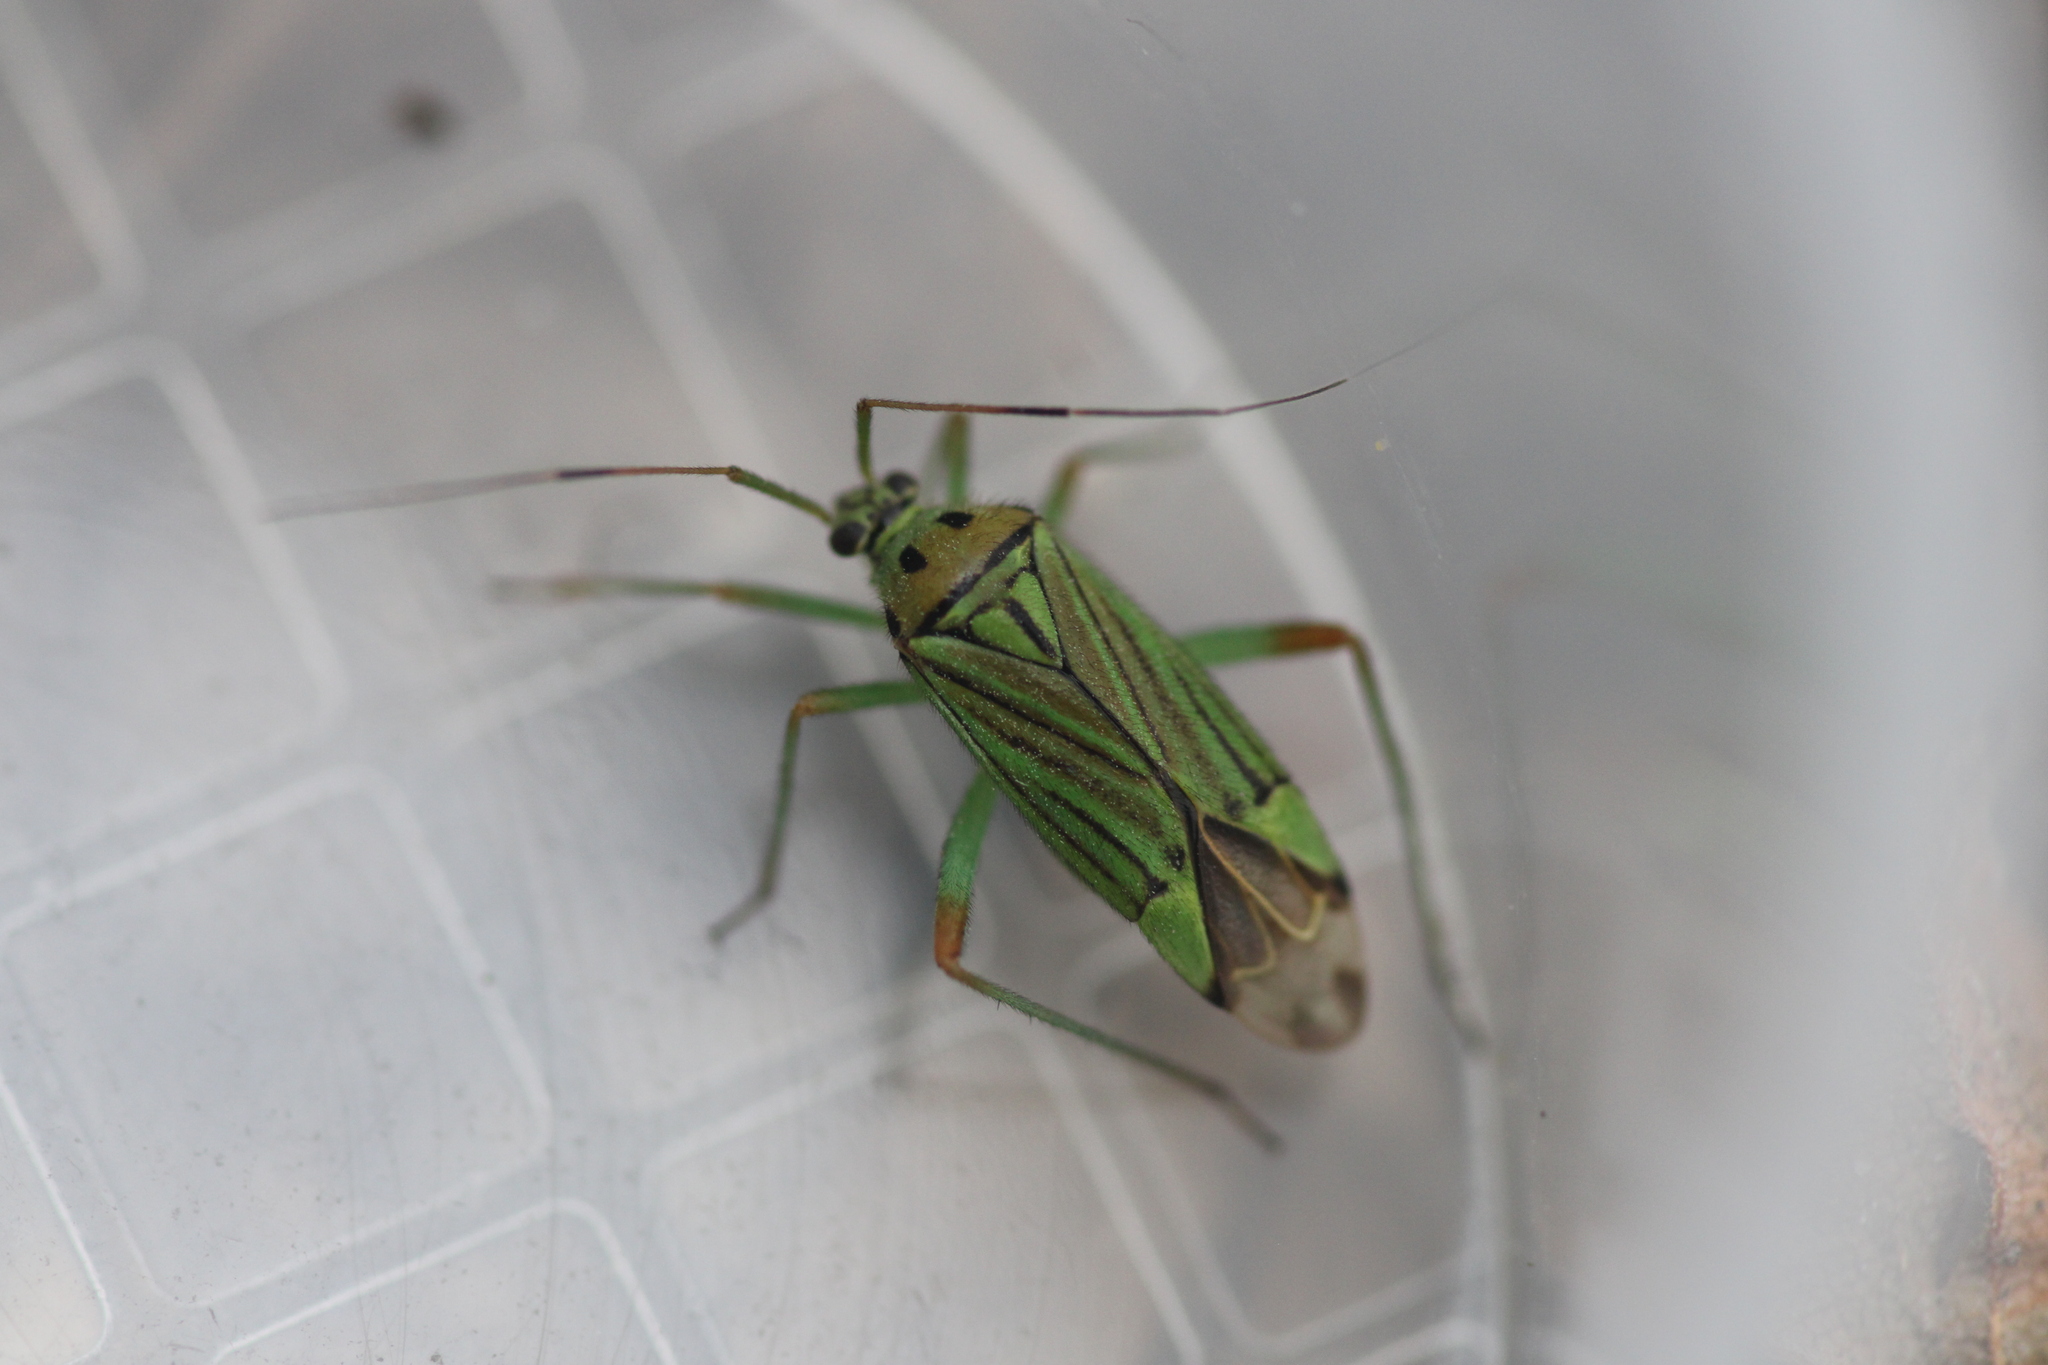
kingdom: Animalia
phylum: Arthropoda
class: Insecta
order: Hemiptera
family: Miridae
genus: Mermitelocerus
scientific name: Mermitelocerus schmidtii
